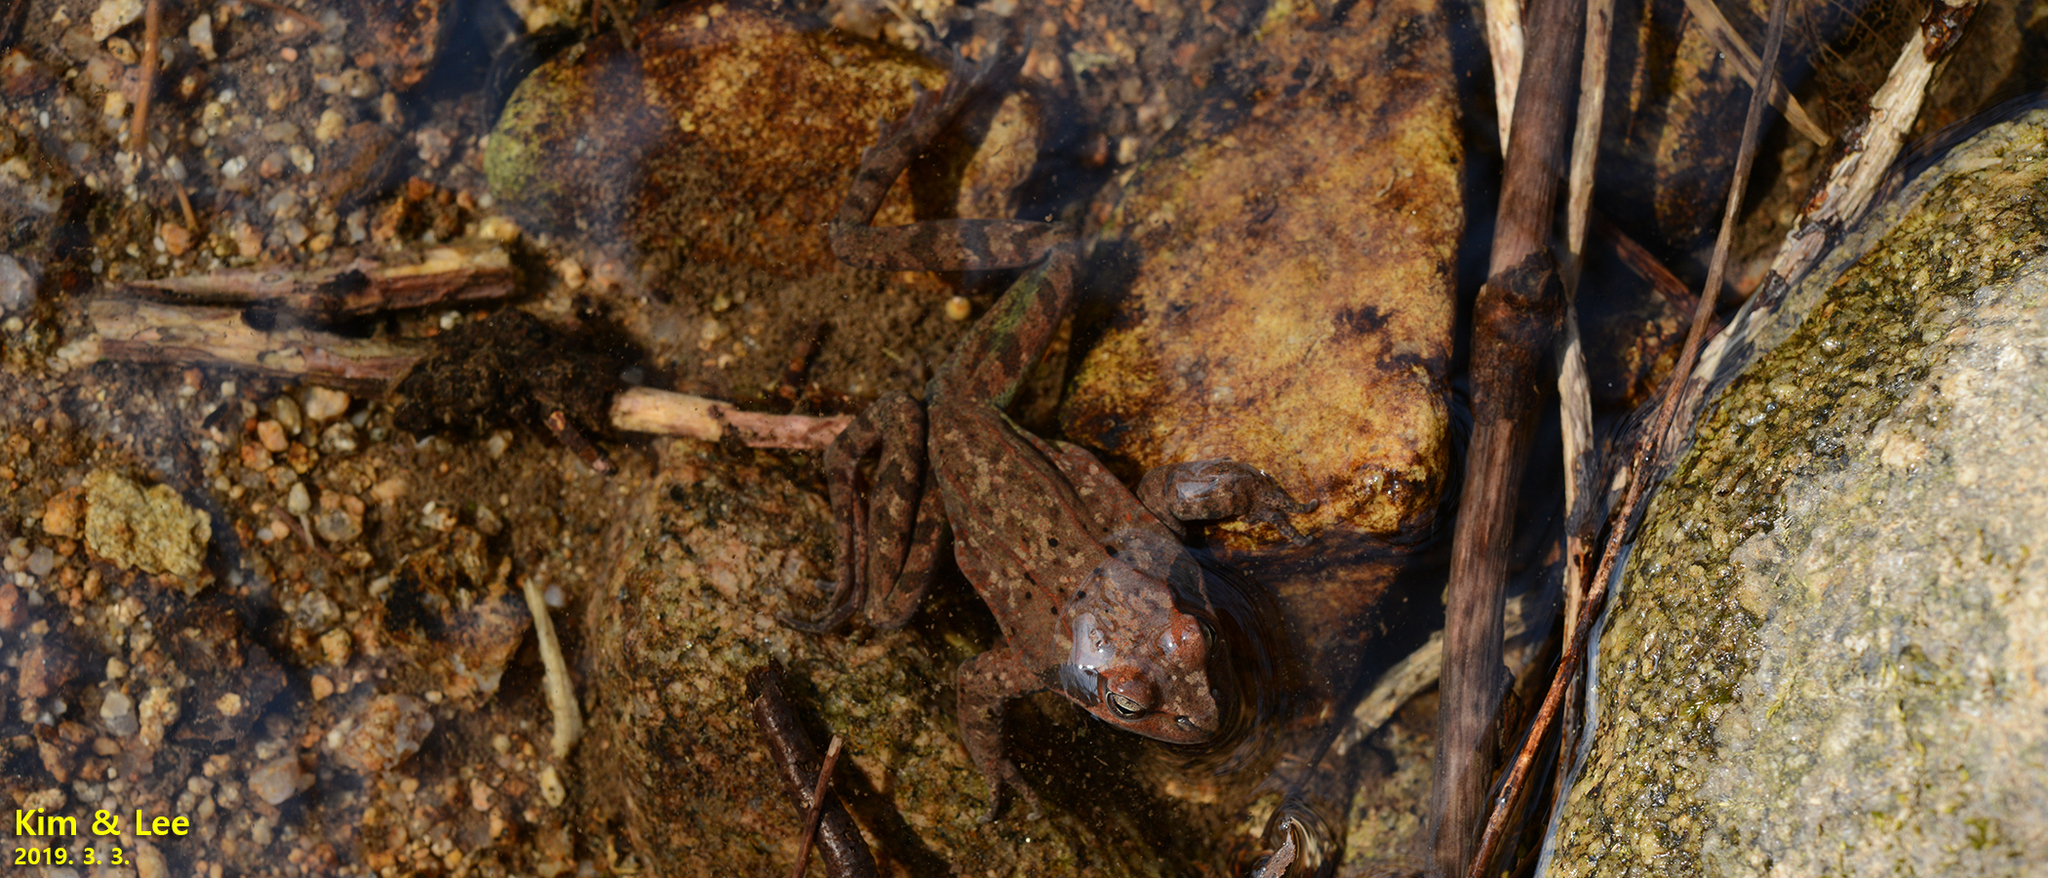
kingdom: Animalia
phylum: Chordata
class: Amphibia
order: Anura
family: Ranidae
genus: Rana
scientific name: Rana huanrenensis
